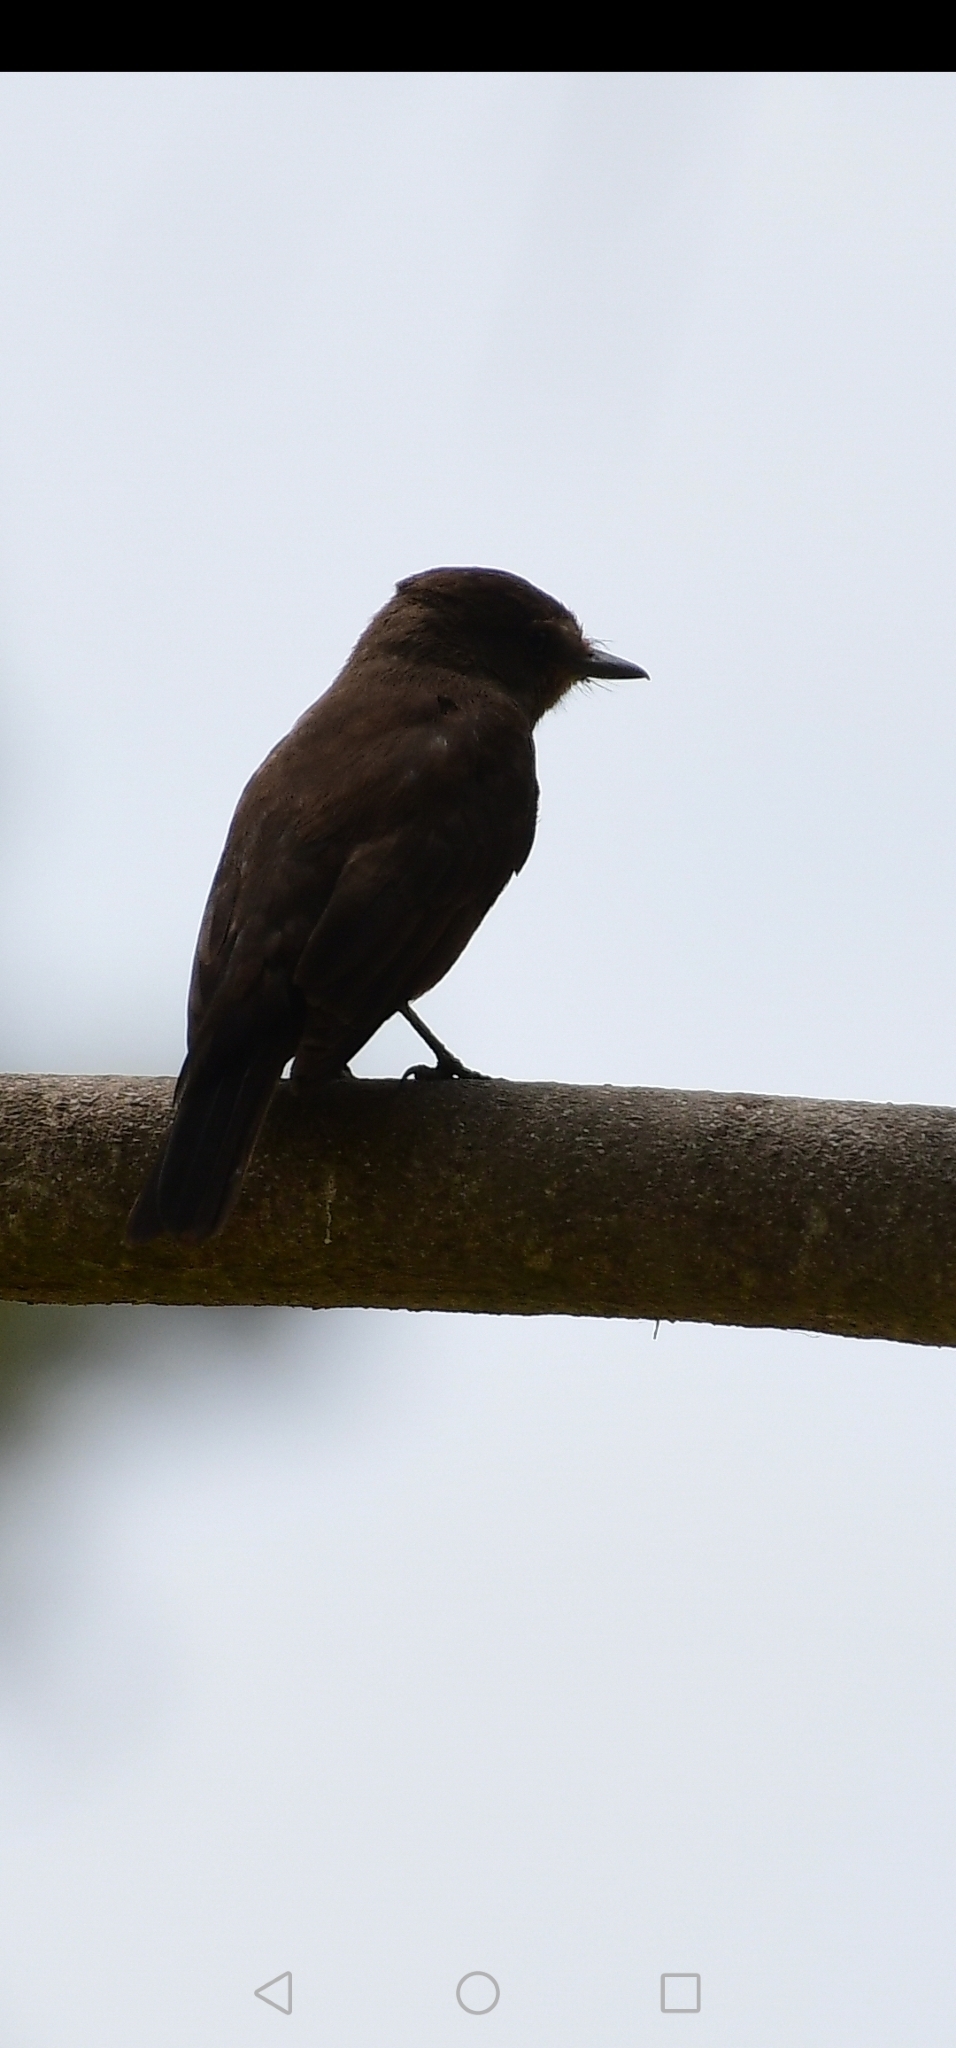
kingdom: Animalia
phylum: Chordata
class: Aves
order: Passeriformes
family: Tyrannidae
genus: Pyrocephalus
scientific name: Pyrocephalus rubinus
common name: Vermilion flycatcher
